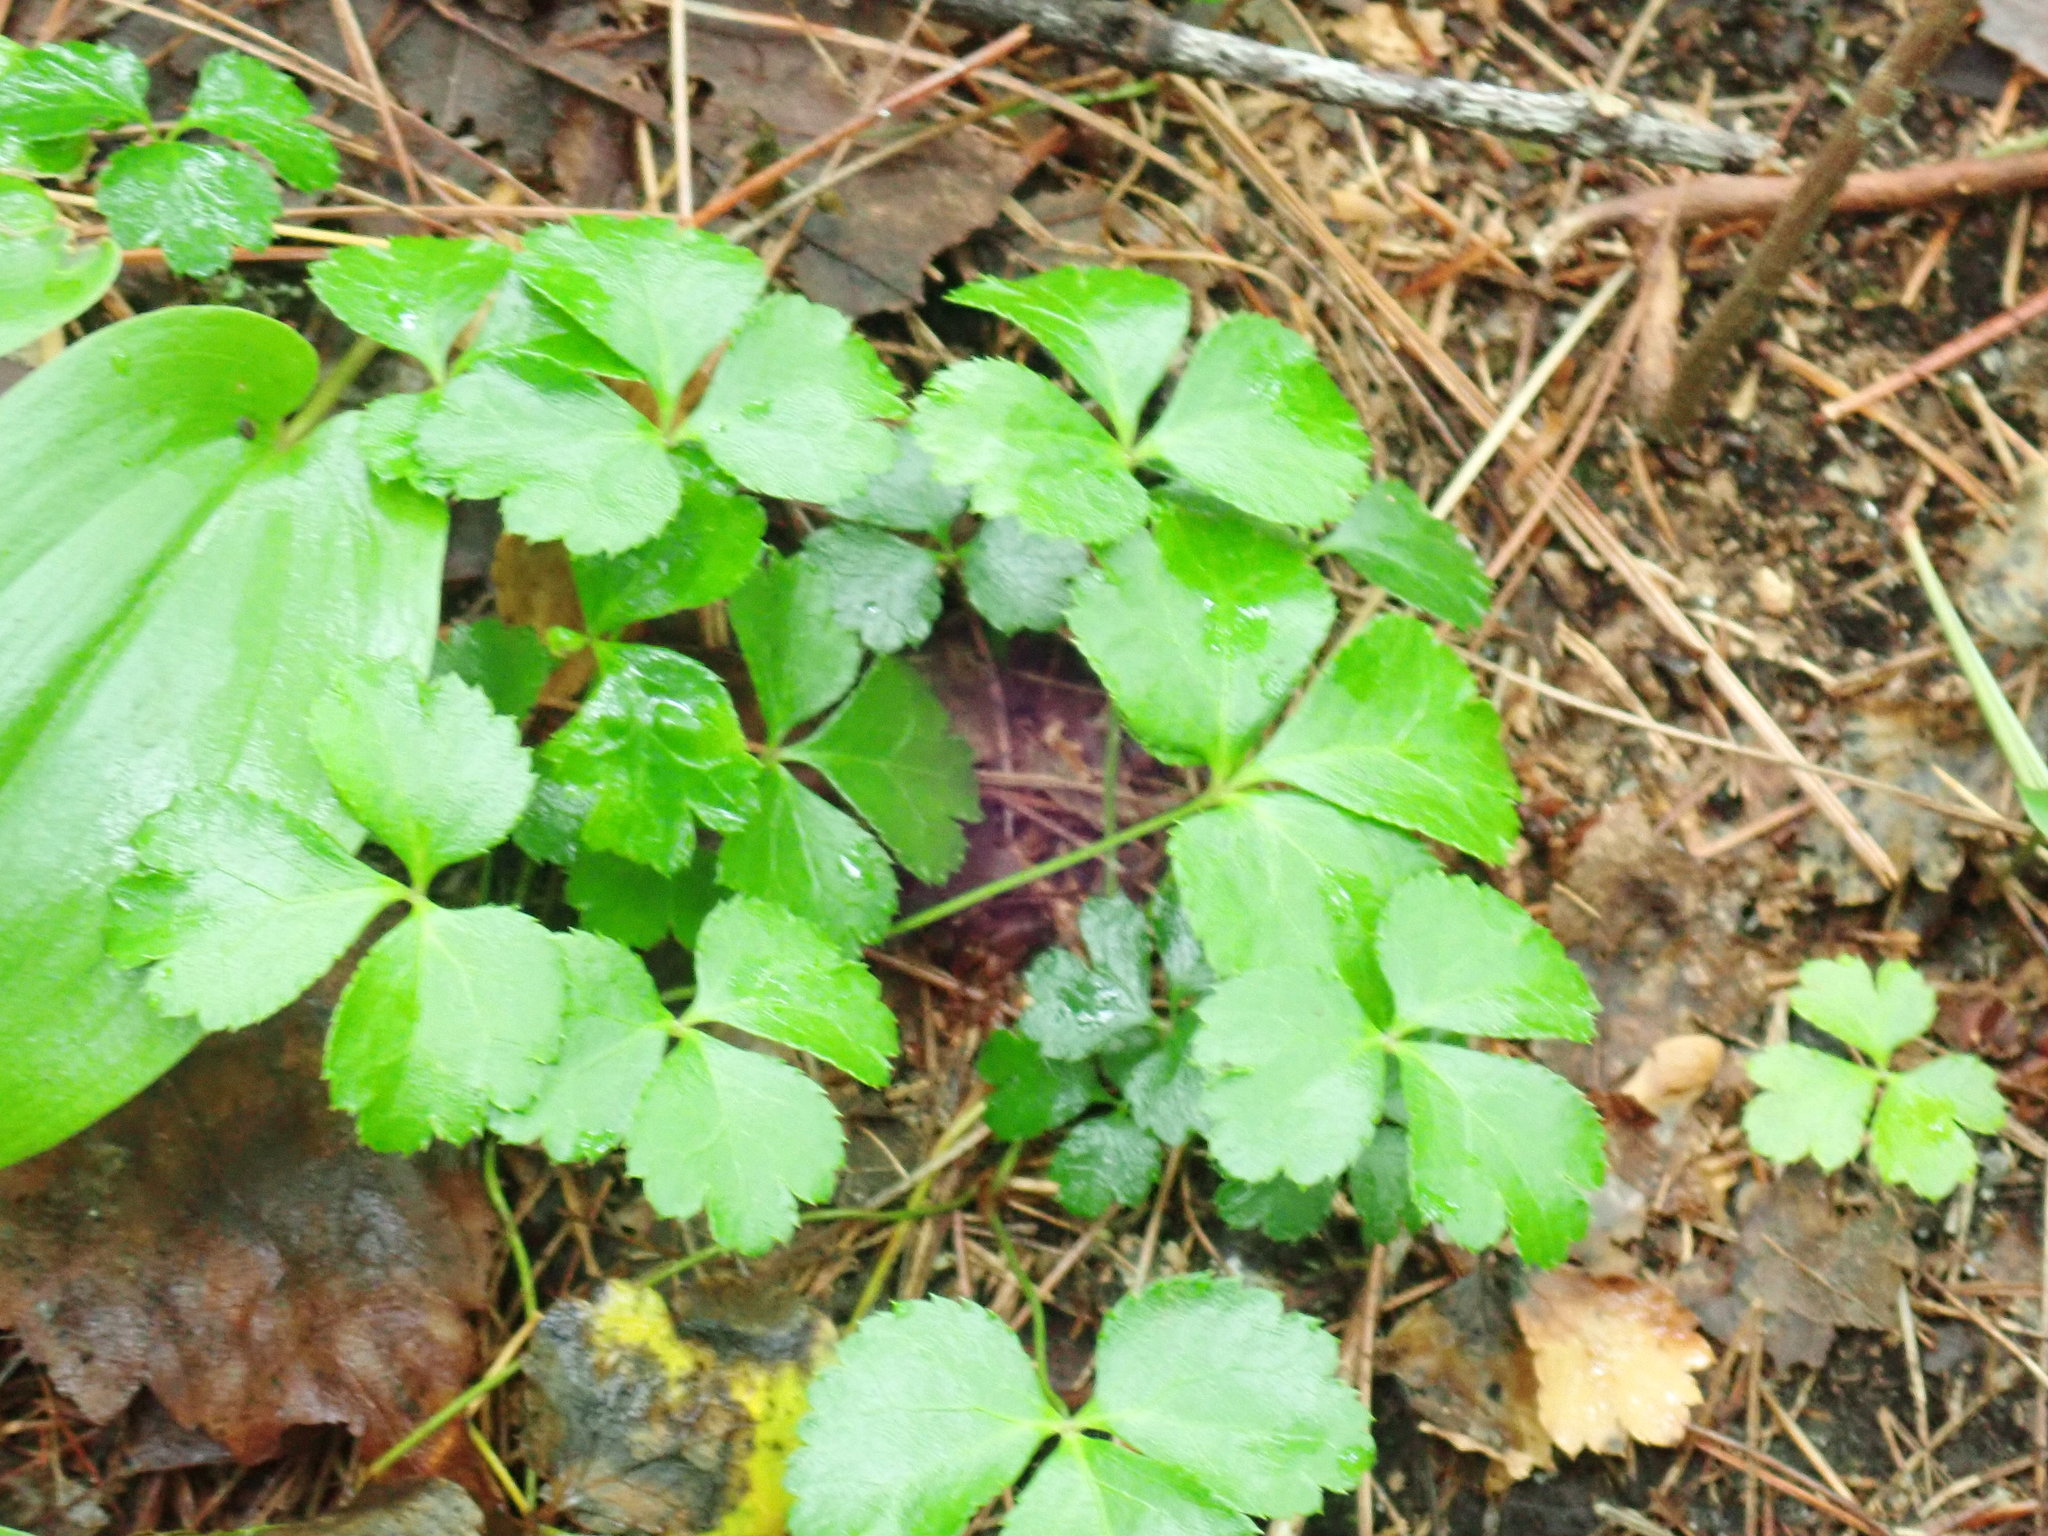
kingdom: Plantae
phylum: Tracheophyta
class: Magnoliopsida
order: Ranunculales
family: Ranunculaceae
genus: Coptis
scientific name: Coptis trifolia
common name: Canker-root
